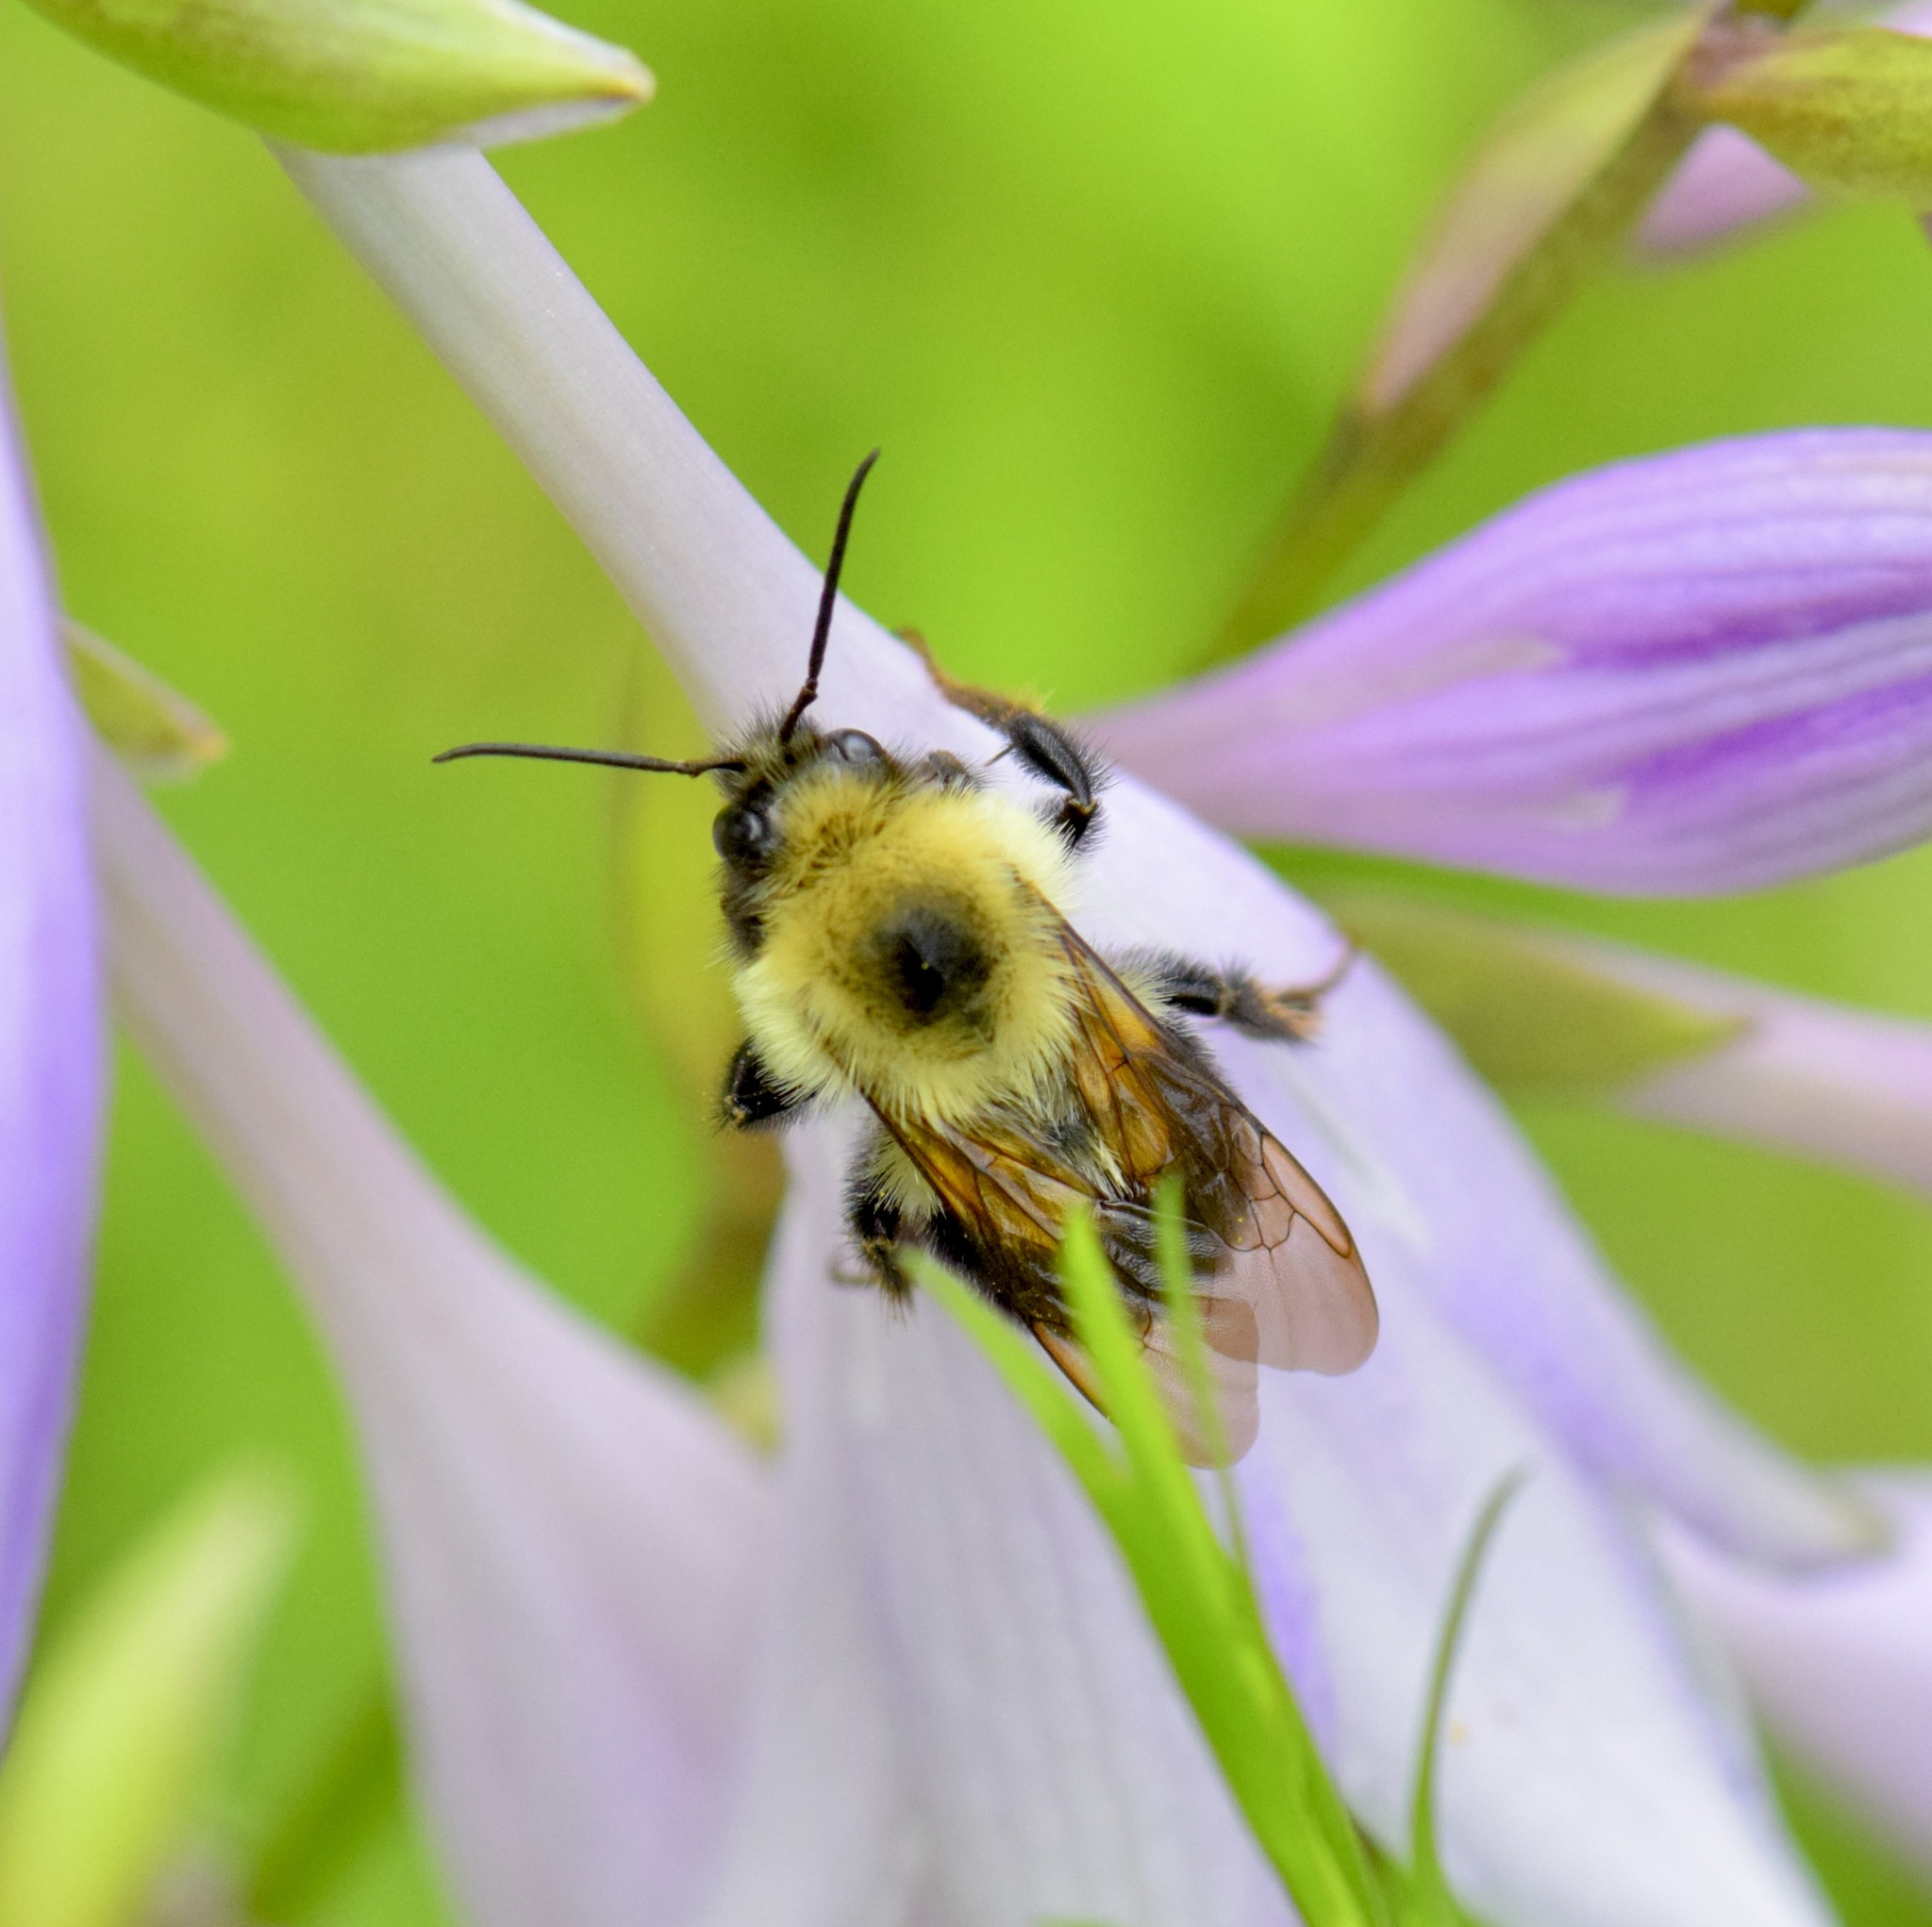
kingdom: Animalia
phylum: Arthropoda
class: Insecta
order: Hymenoptera
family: Apidae
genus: Bombus
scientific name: Bombus bimaculatus
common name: Two-spotted bumble bee
